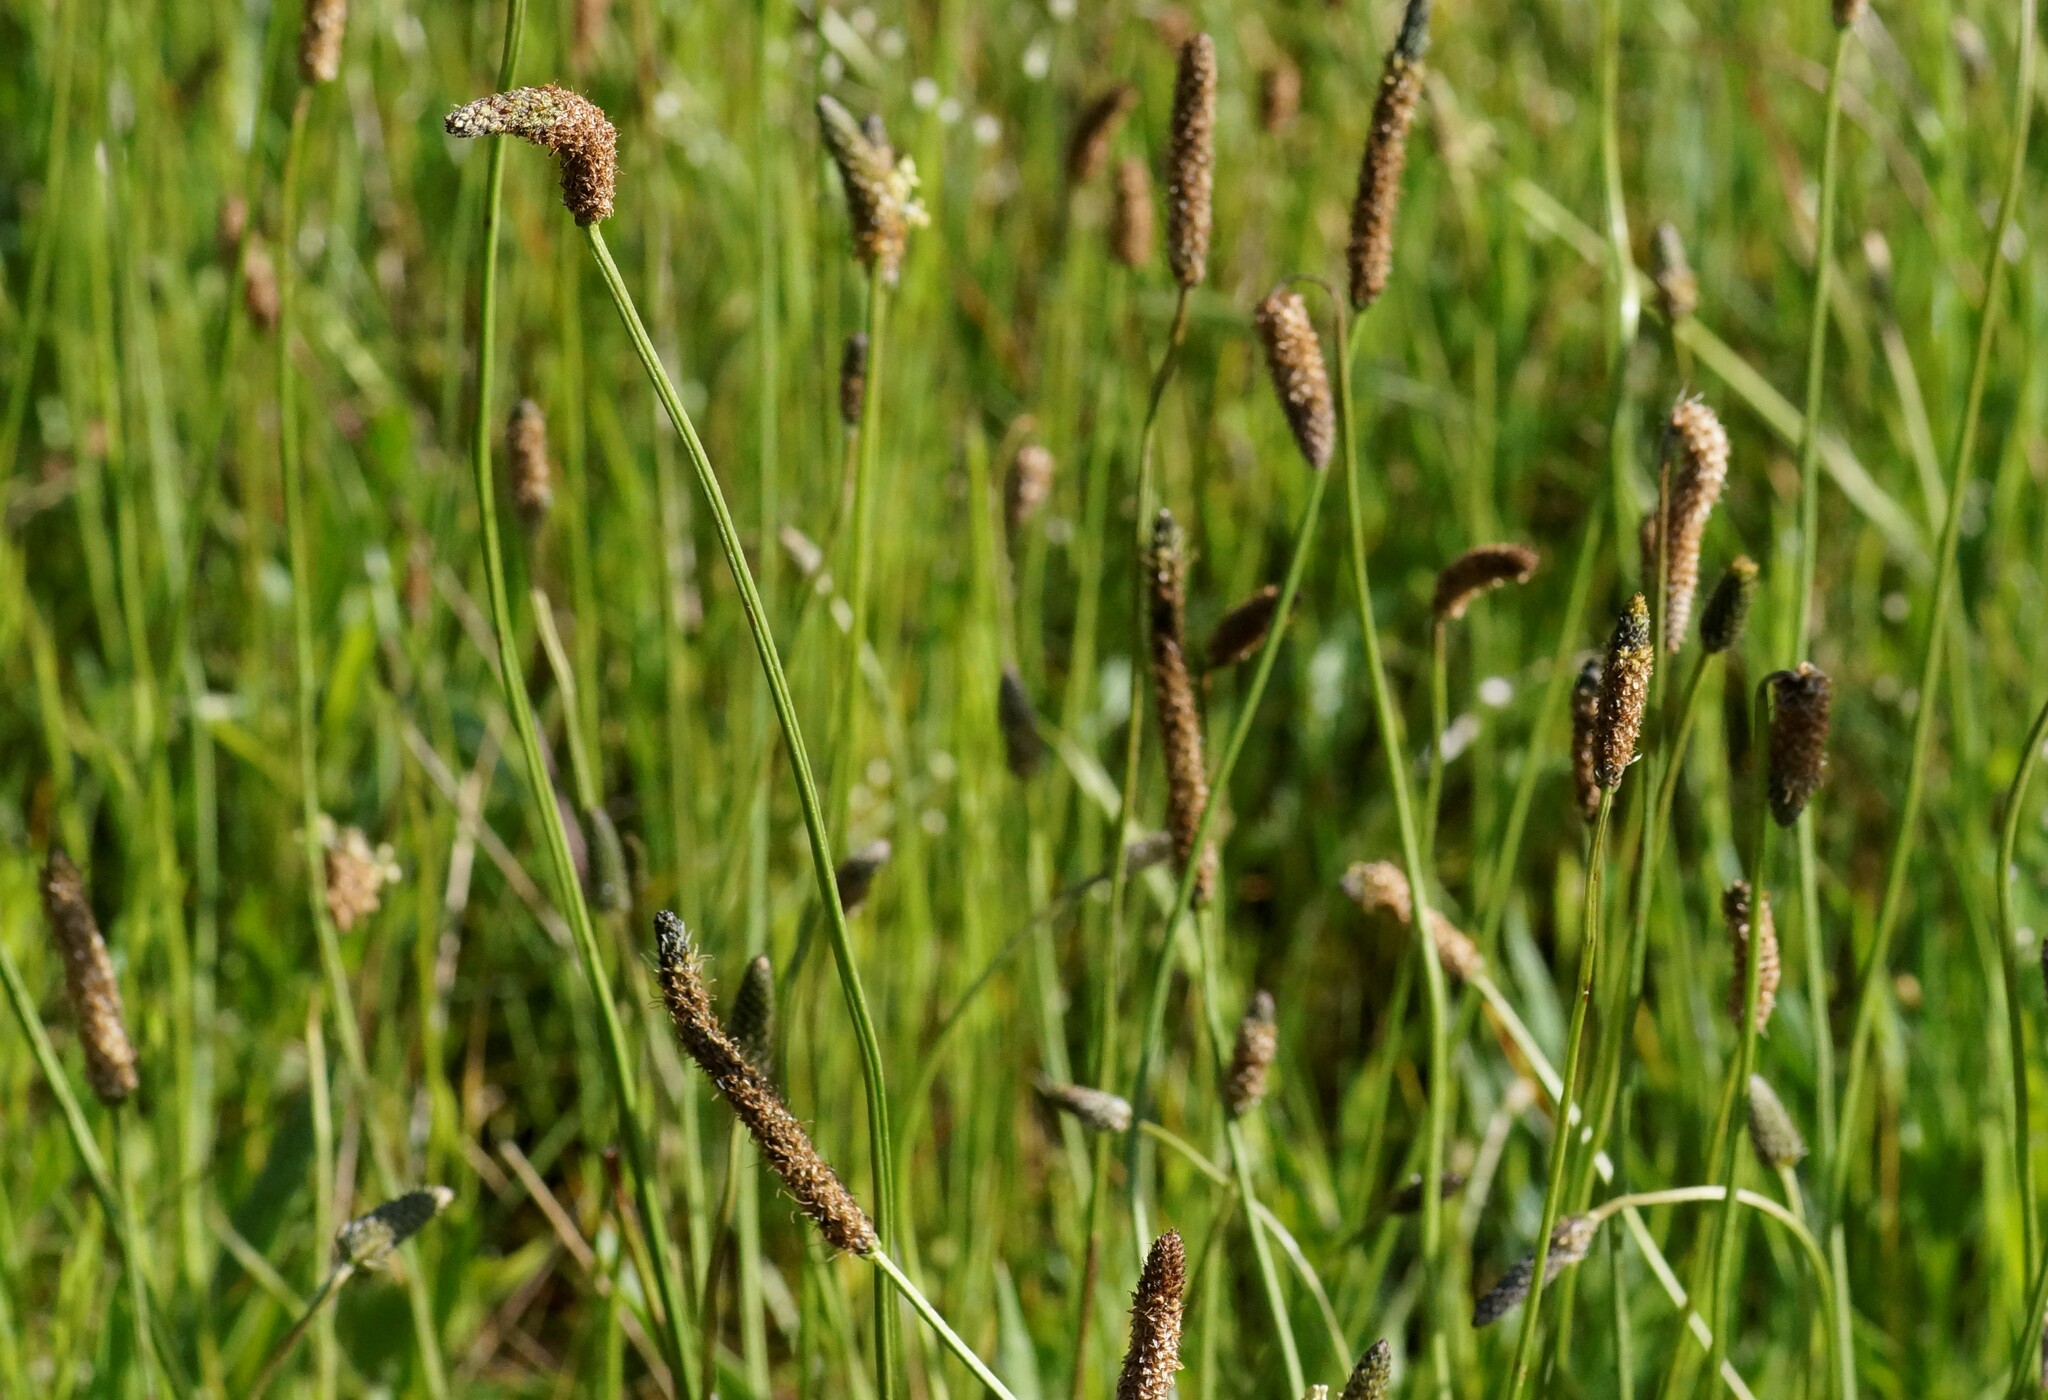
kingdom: Plantae
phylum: Tracheophyta
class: Magnoliopsida
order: Lamiales
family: Plantaginaceae
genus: Plantago
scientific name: Plantago lanceolata
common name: Ribwort plantain
